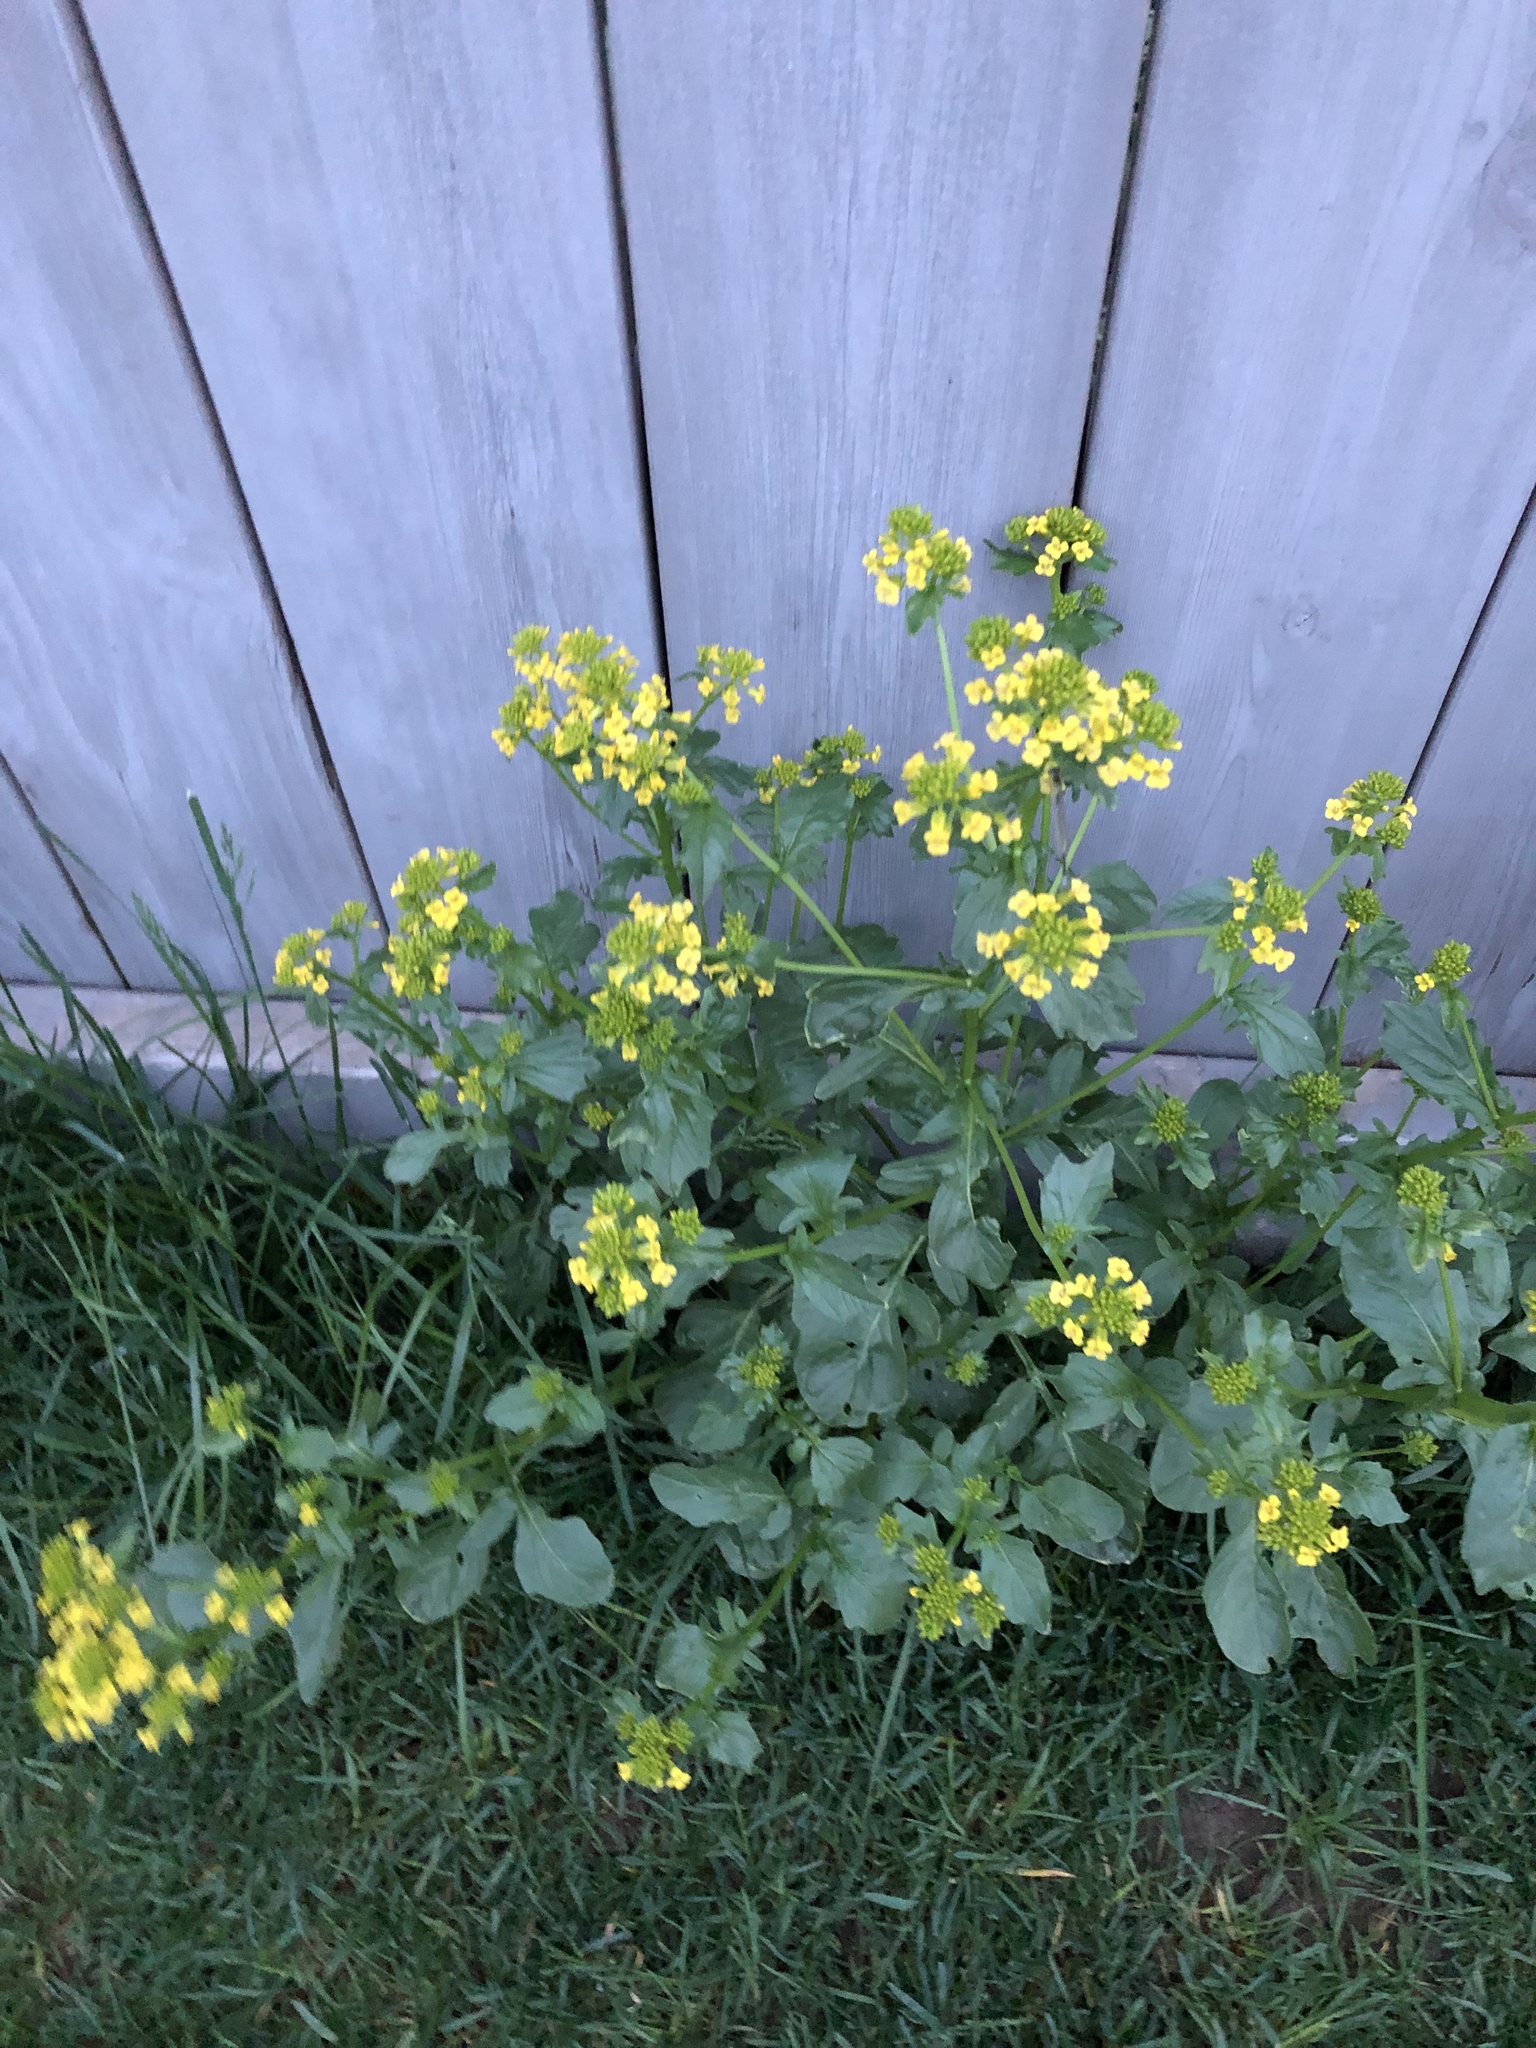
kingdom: Plantae
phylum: Tracheophyta
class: Magnoliopsida
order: Brassicales
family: Brassicaceae
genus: Barbarea
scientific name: Barbarea vulgaris
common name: Cressy-greens
